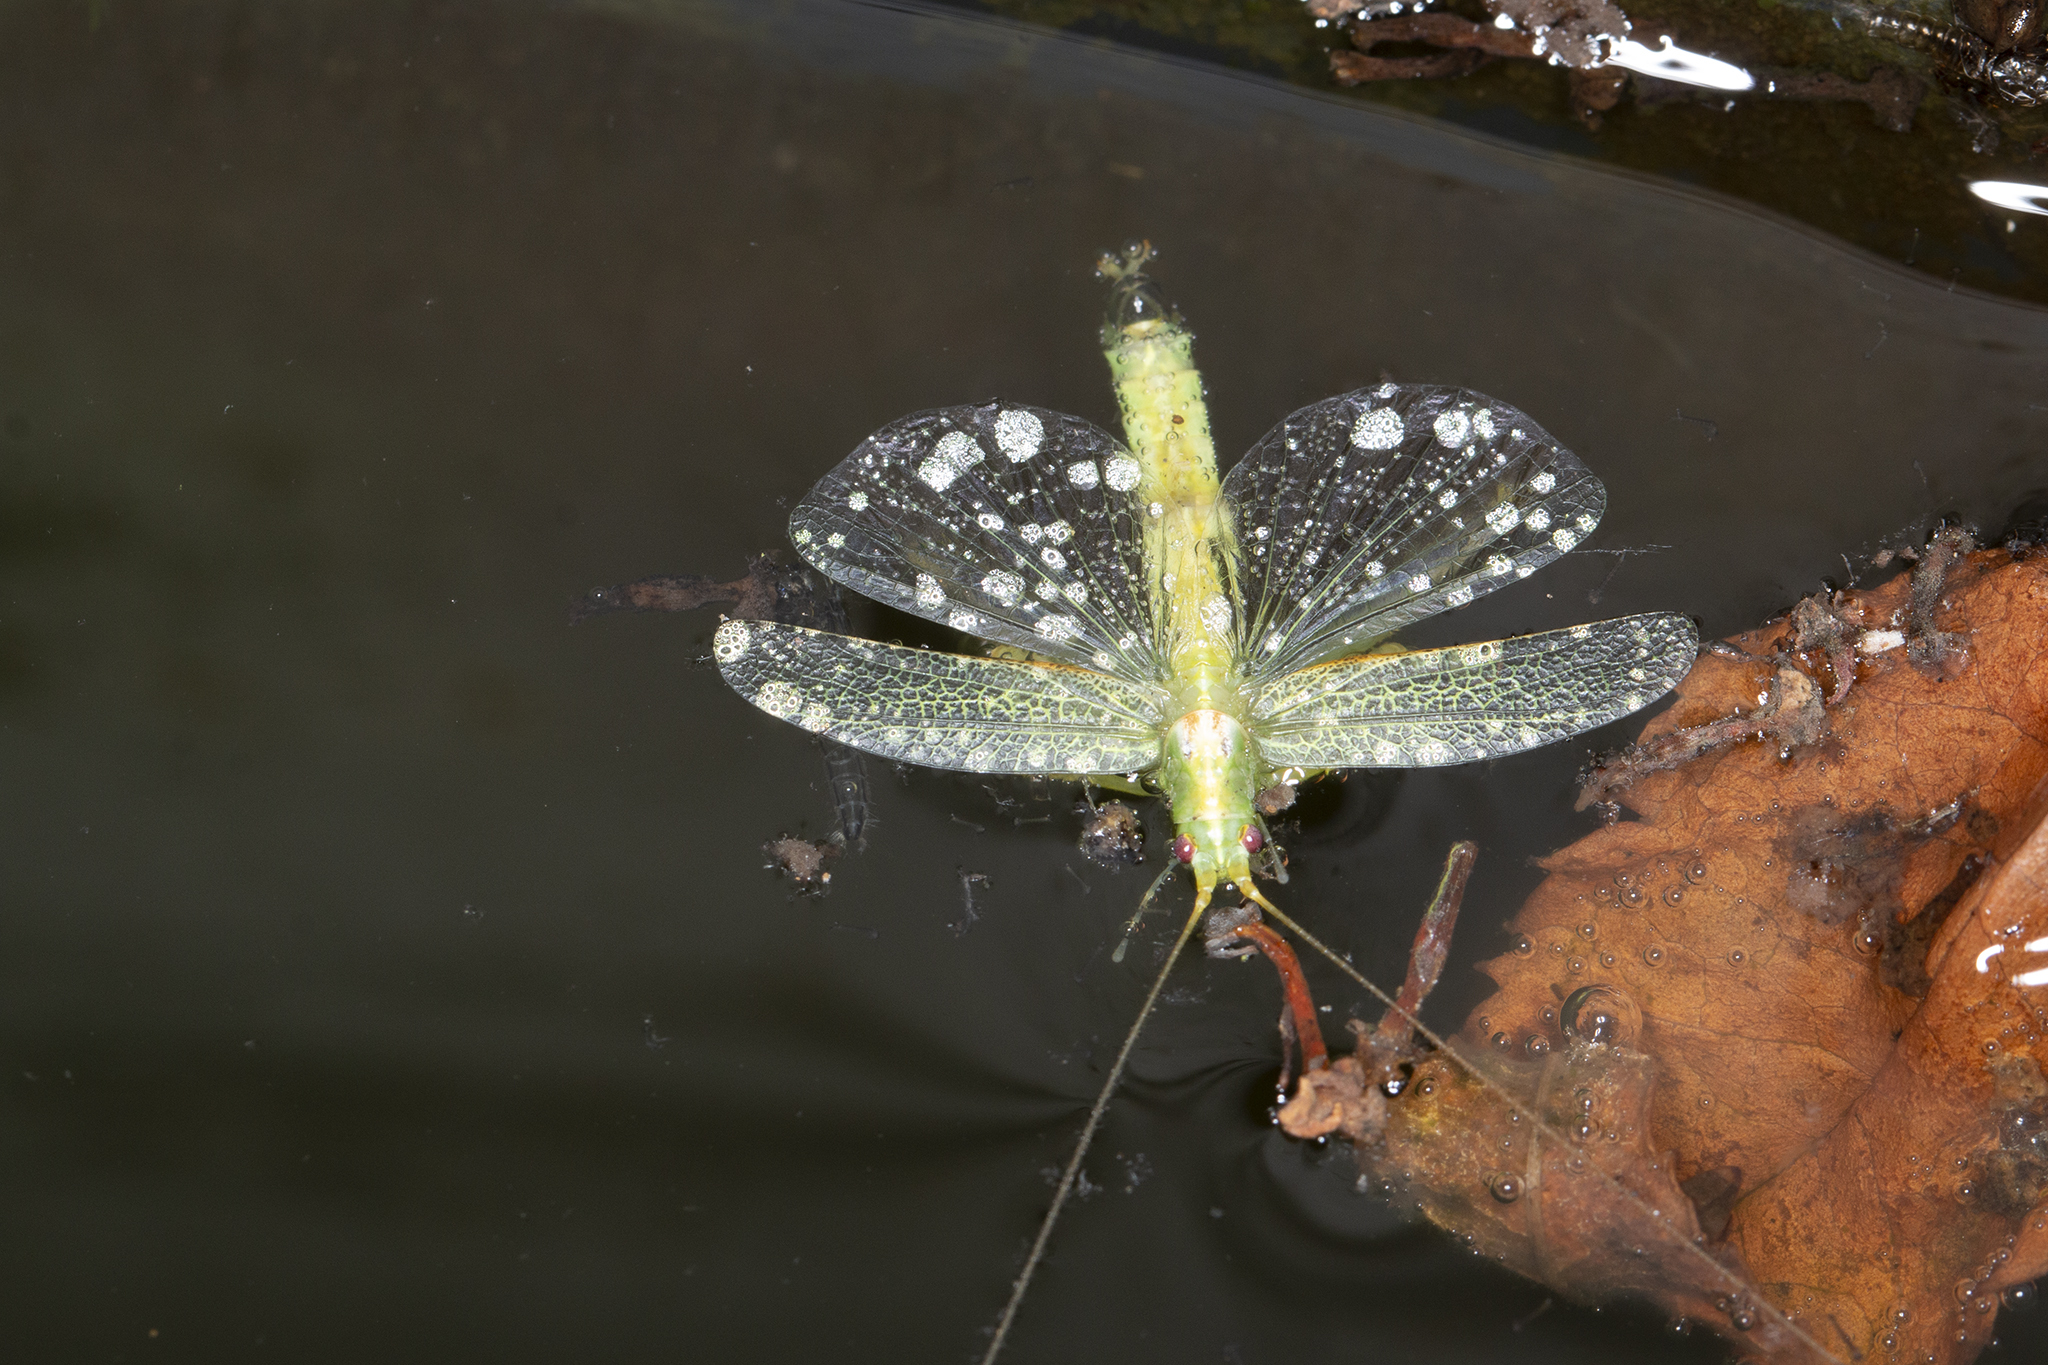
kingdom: Animalia
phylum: Arthropoda
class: Insecta
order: Orthoptera
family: Tettigoniidae
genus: Meconema
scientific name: Meconema thalassinum
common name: Oak bush-cricket
